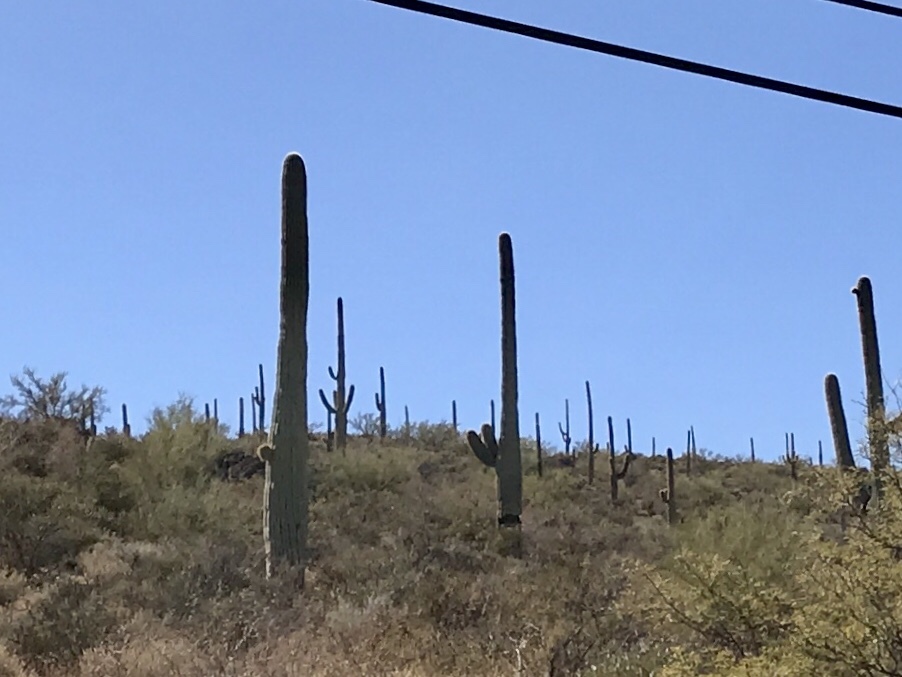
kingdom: Plantae
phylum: Tracheophyta
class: Magnoliopsida
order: Caryophyllales
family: Cactaceae
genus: Carnegiea
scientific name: Carnegiea gigantea
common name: Saguaro
